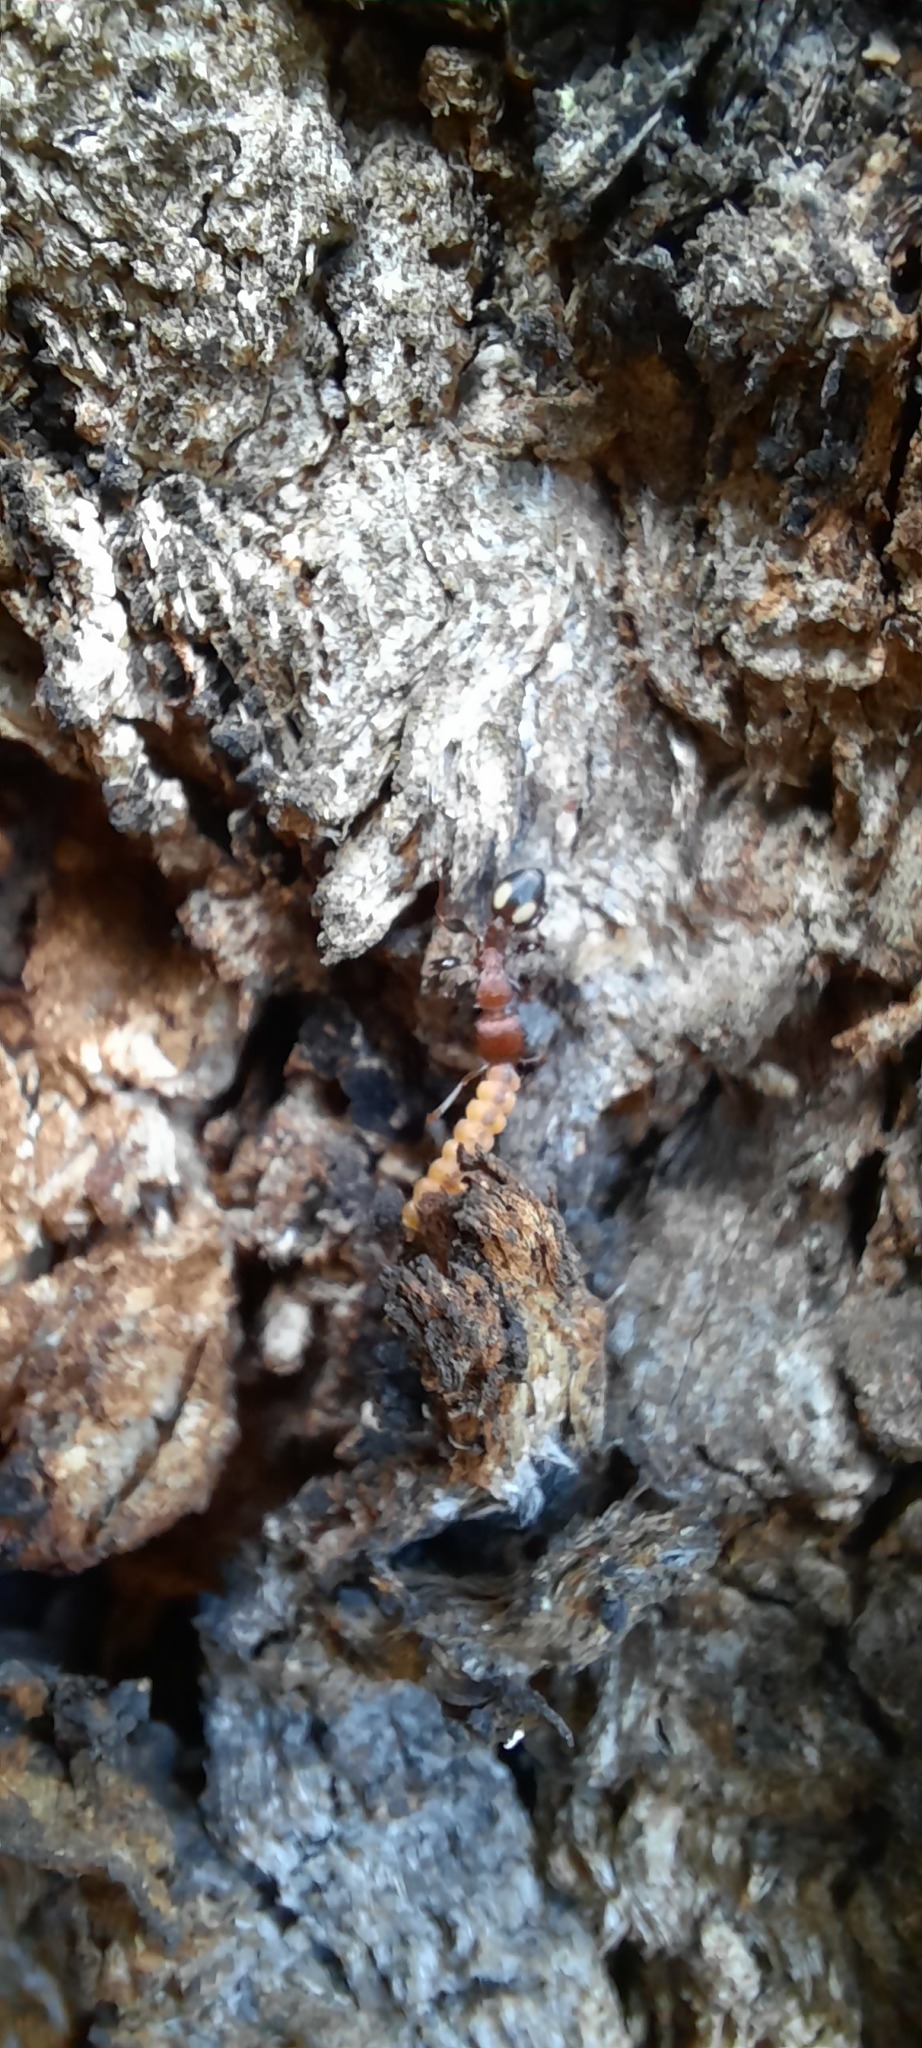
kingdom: Animalia
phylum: Arthropoda
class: Insecta
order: Hymenoptera
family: Formicidae
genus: Podomyrma
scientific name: Podomyrma adelaidae
